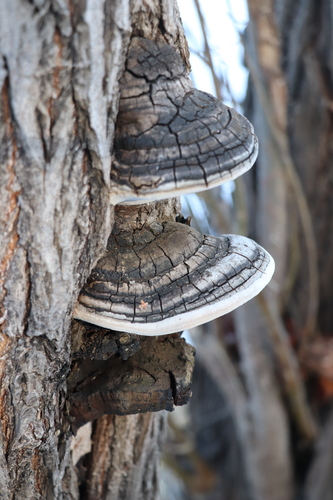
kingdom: Fungi
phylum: Basidiomycota
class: Agaricomycetes
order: Hymenochaetales
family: Hymenochaetaceae
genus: Phellinus
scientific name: Phellinus igniarius
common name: Willow bracket
